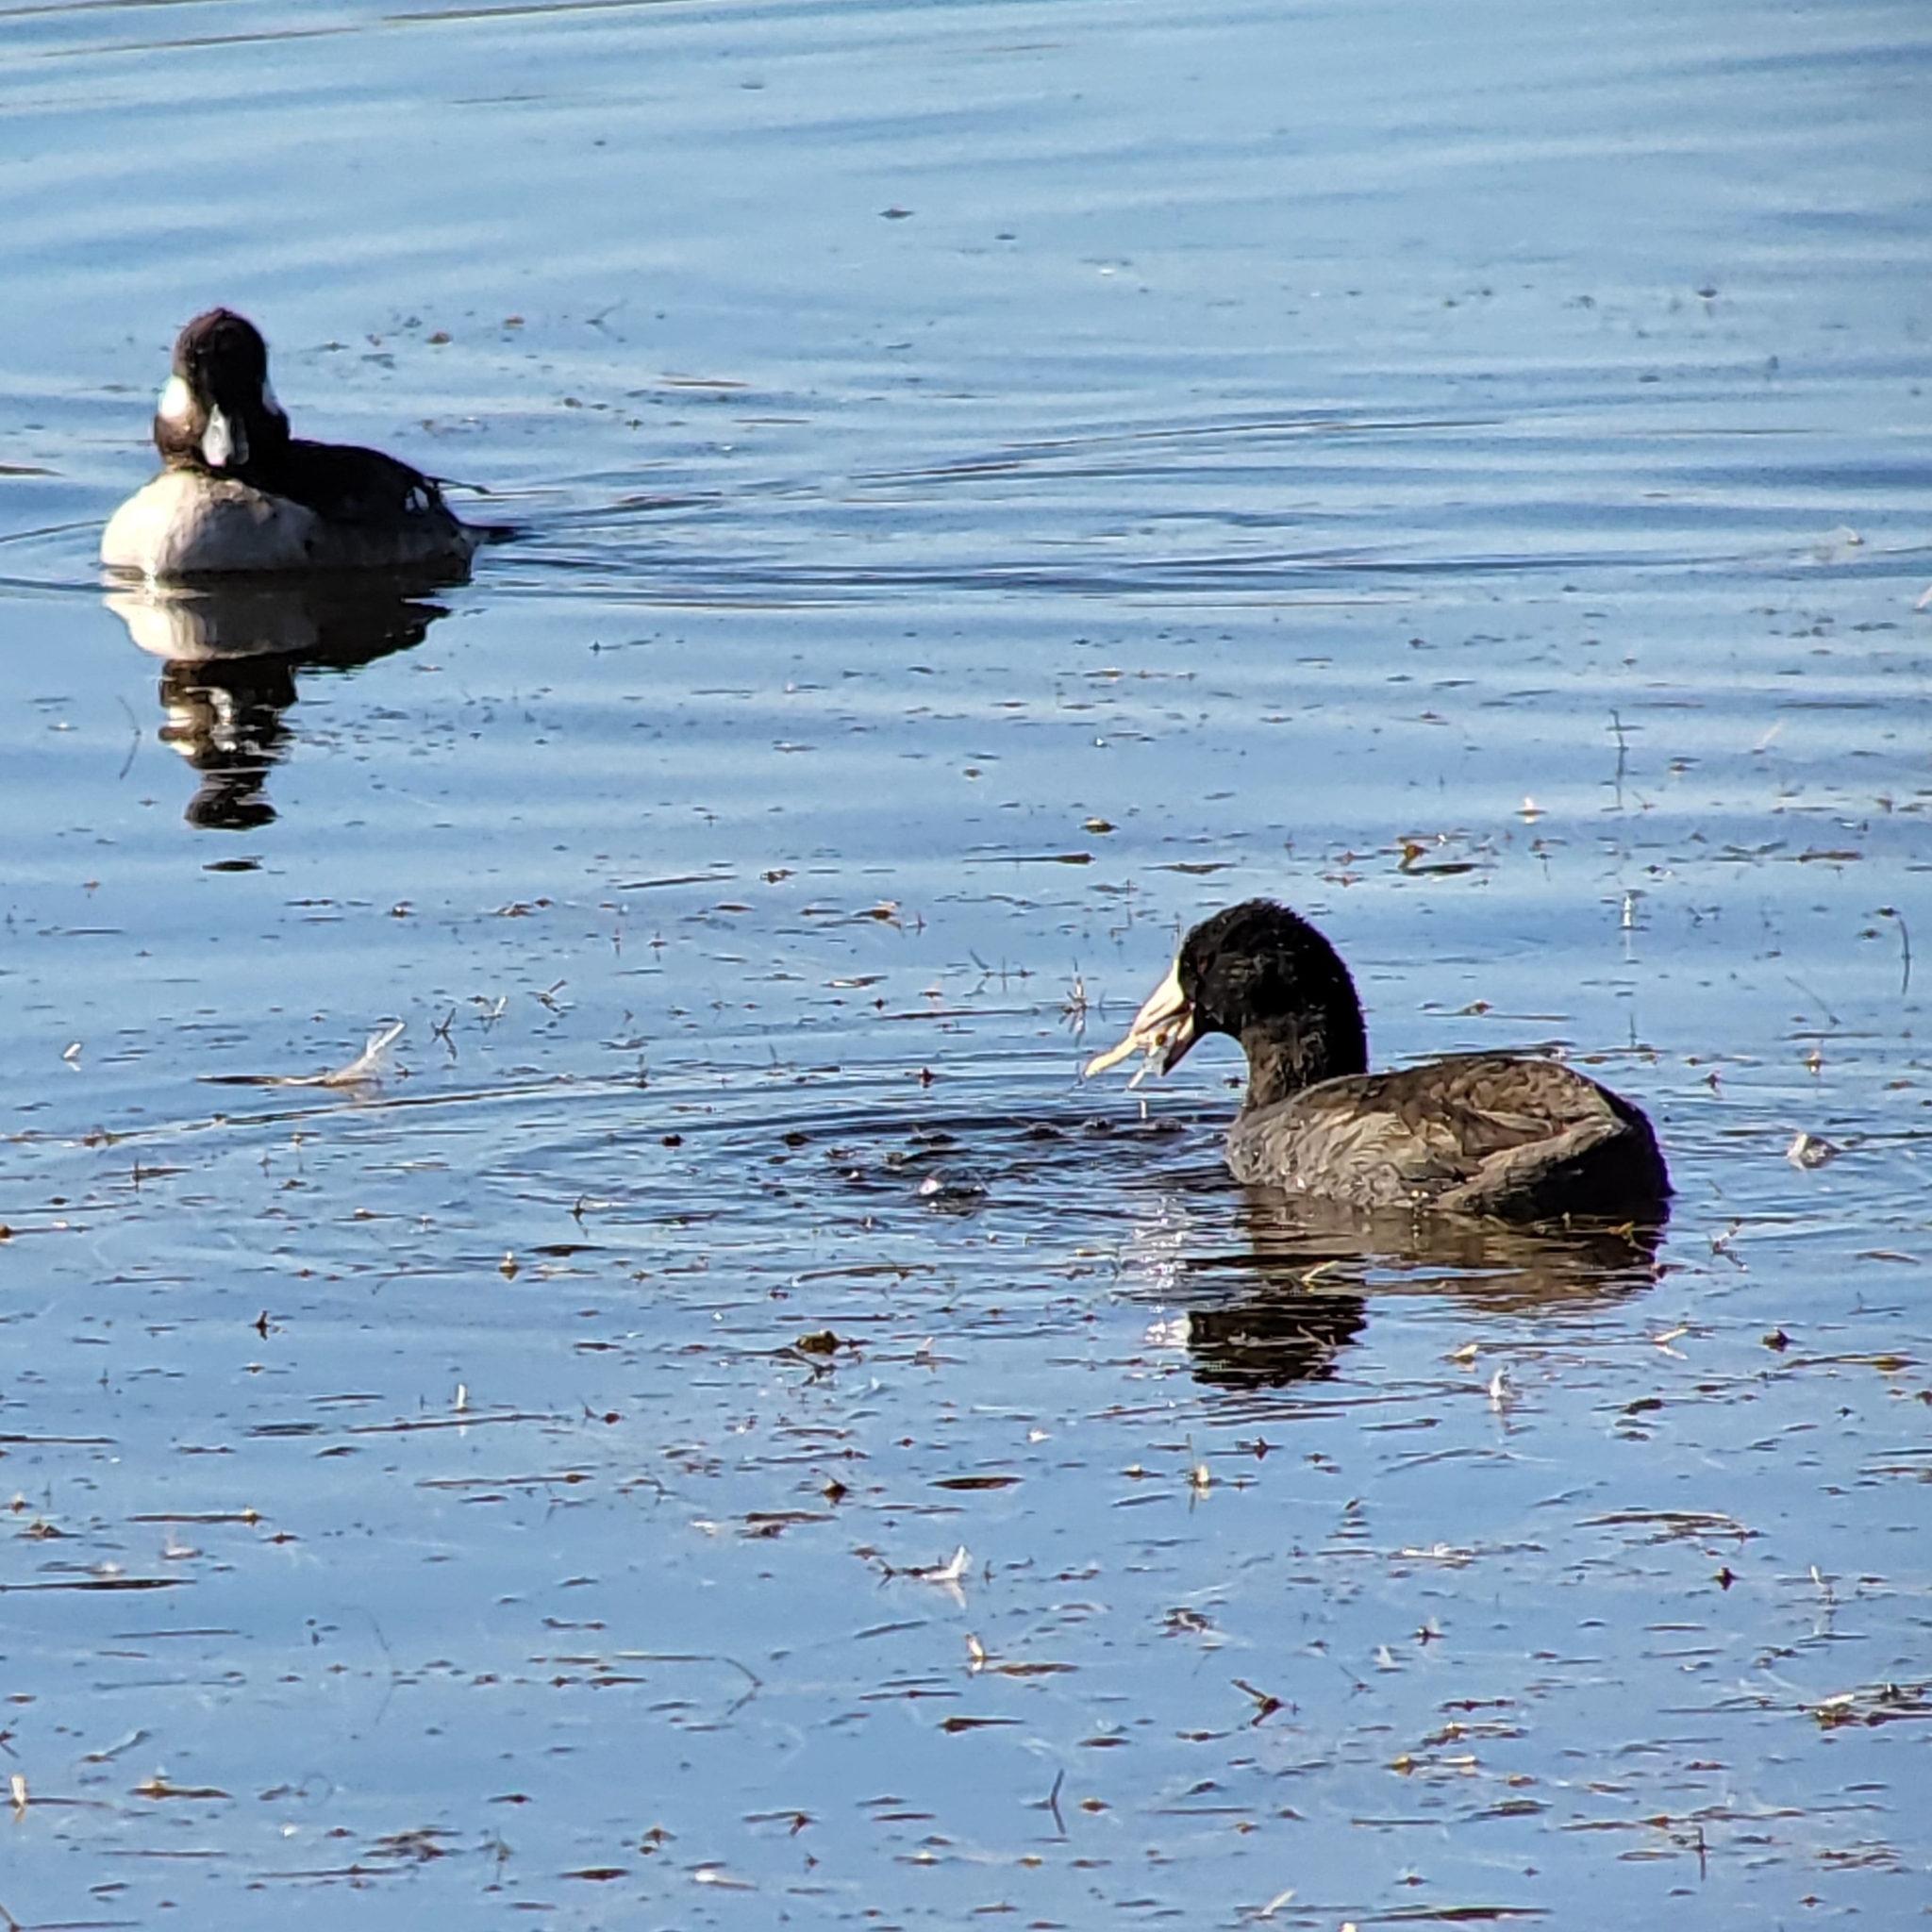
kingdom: Animalia
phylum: Chordata
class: Aves
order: Gruiformes
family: Rallidae
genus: Fulica
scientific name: Fulica americana
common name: American coot
